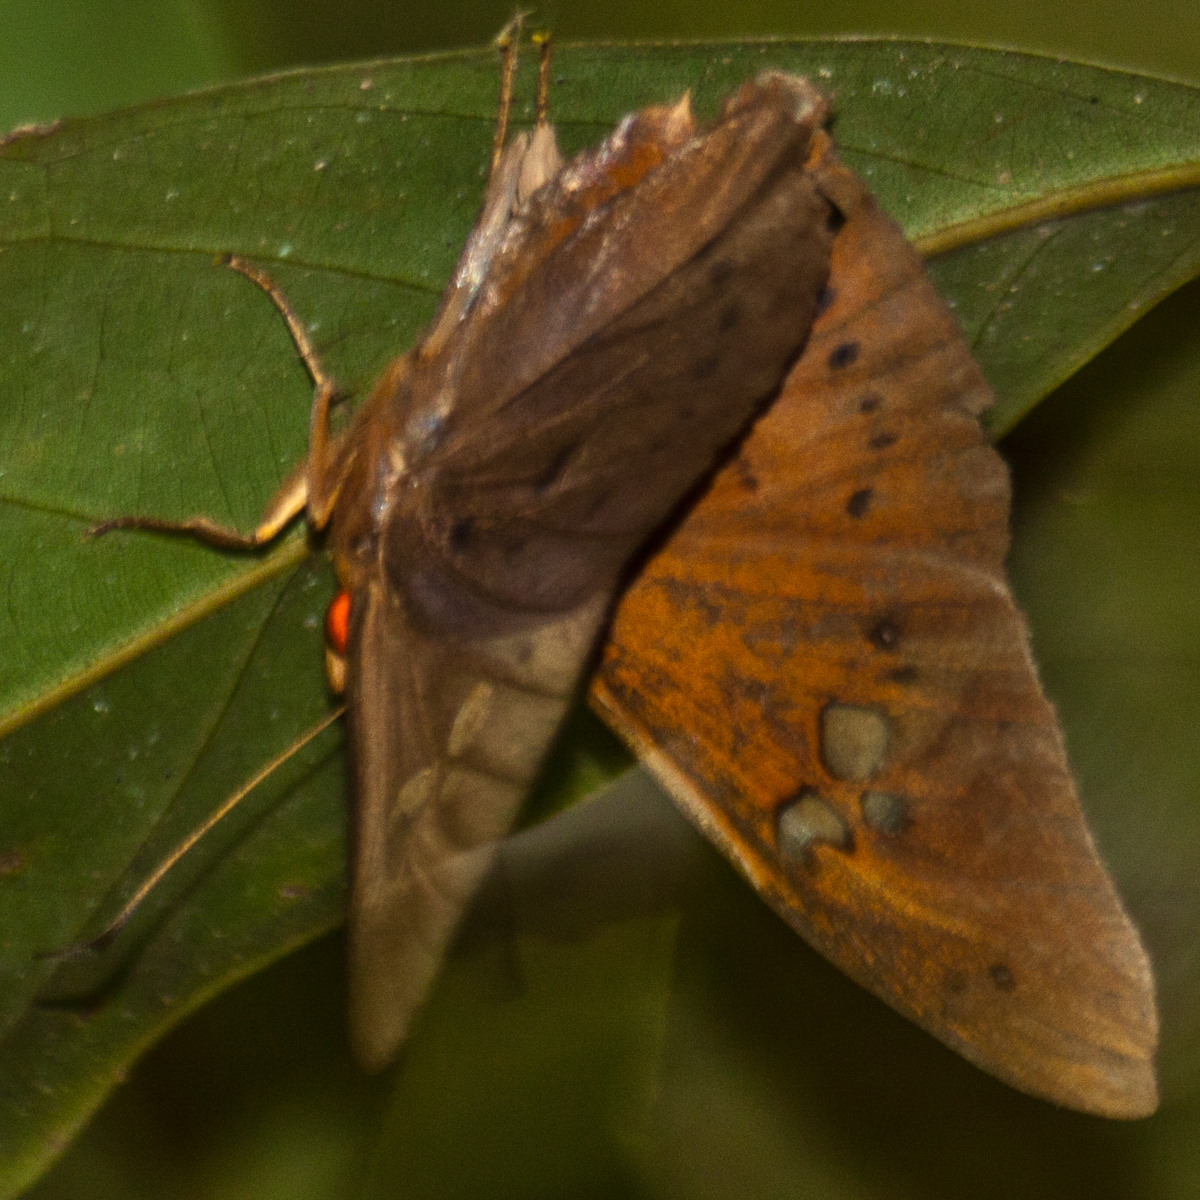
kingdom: Animalia
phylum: Arthropoda
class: Insecta
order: Lepidoptera
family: Hesperiidae
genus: Capila
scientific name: Capila phanaeus
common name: Fulvous dawnfly
